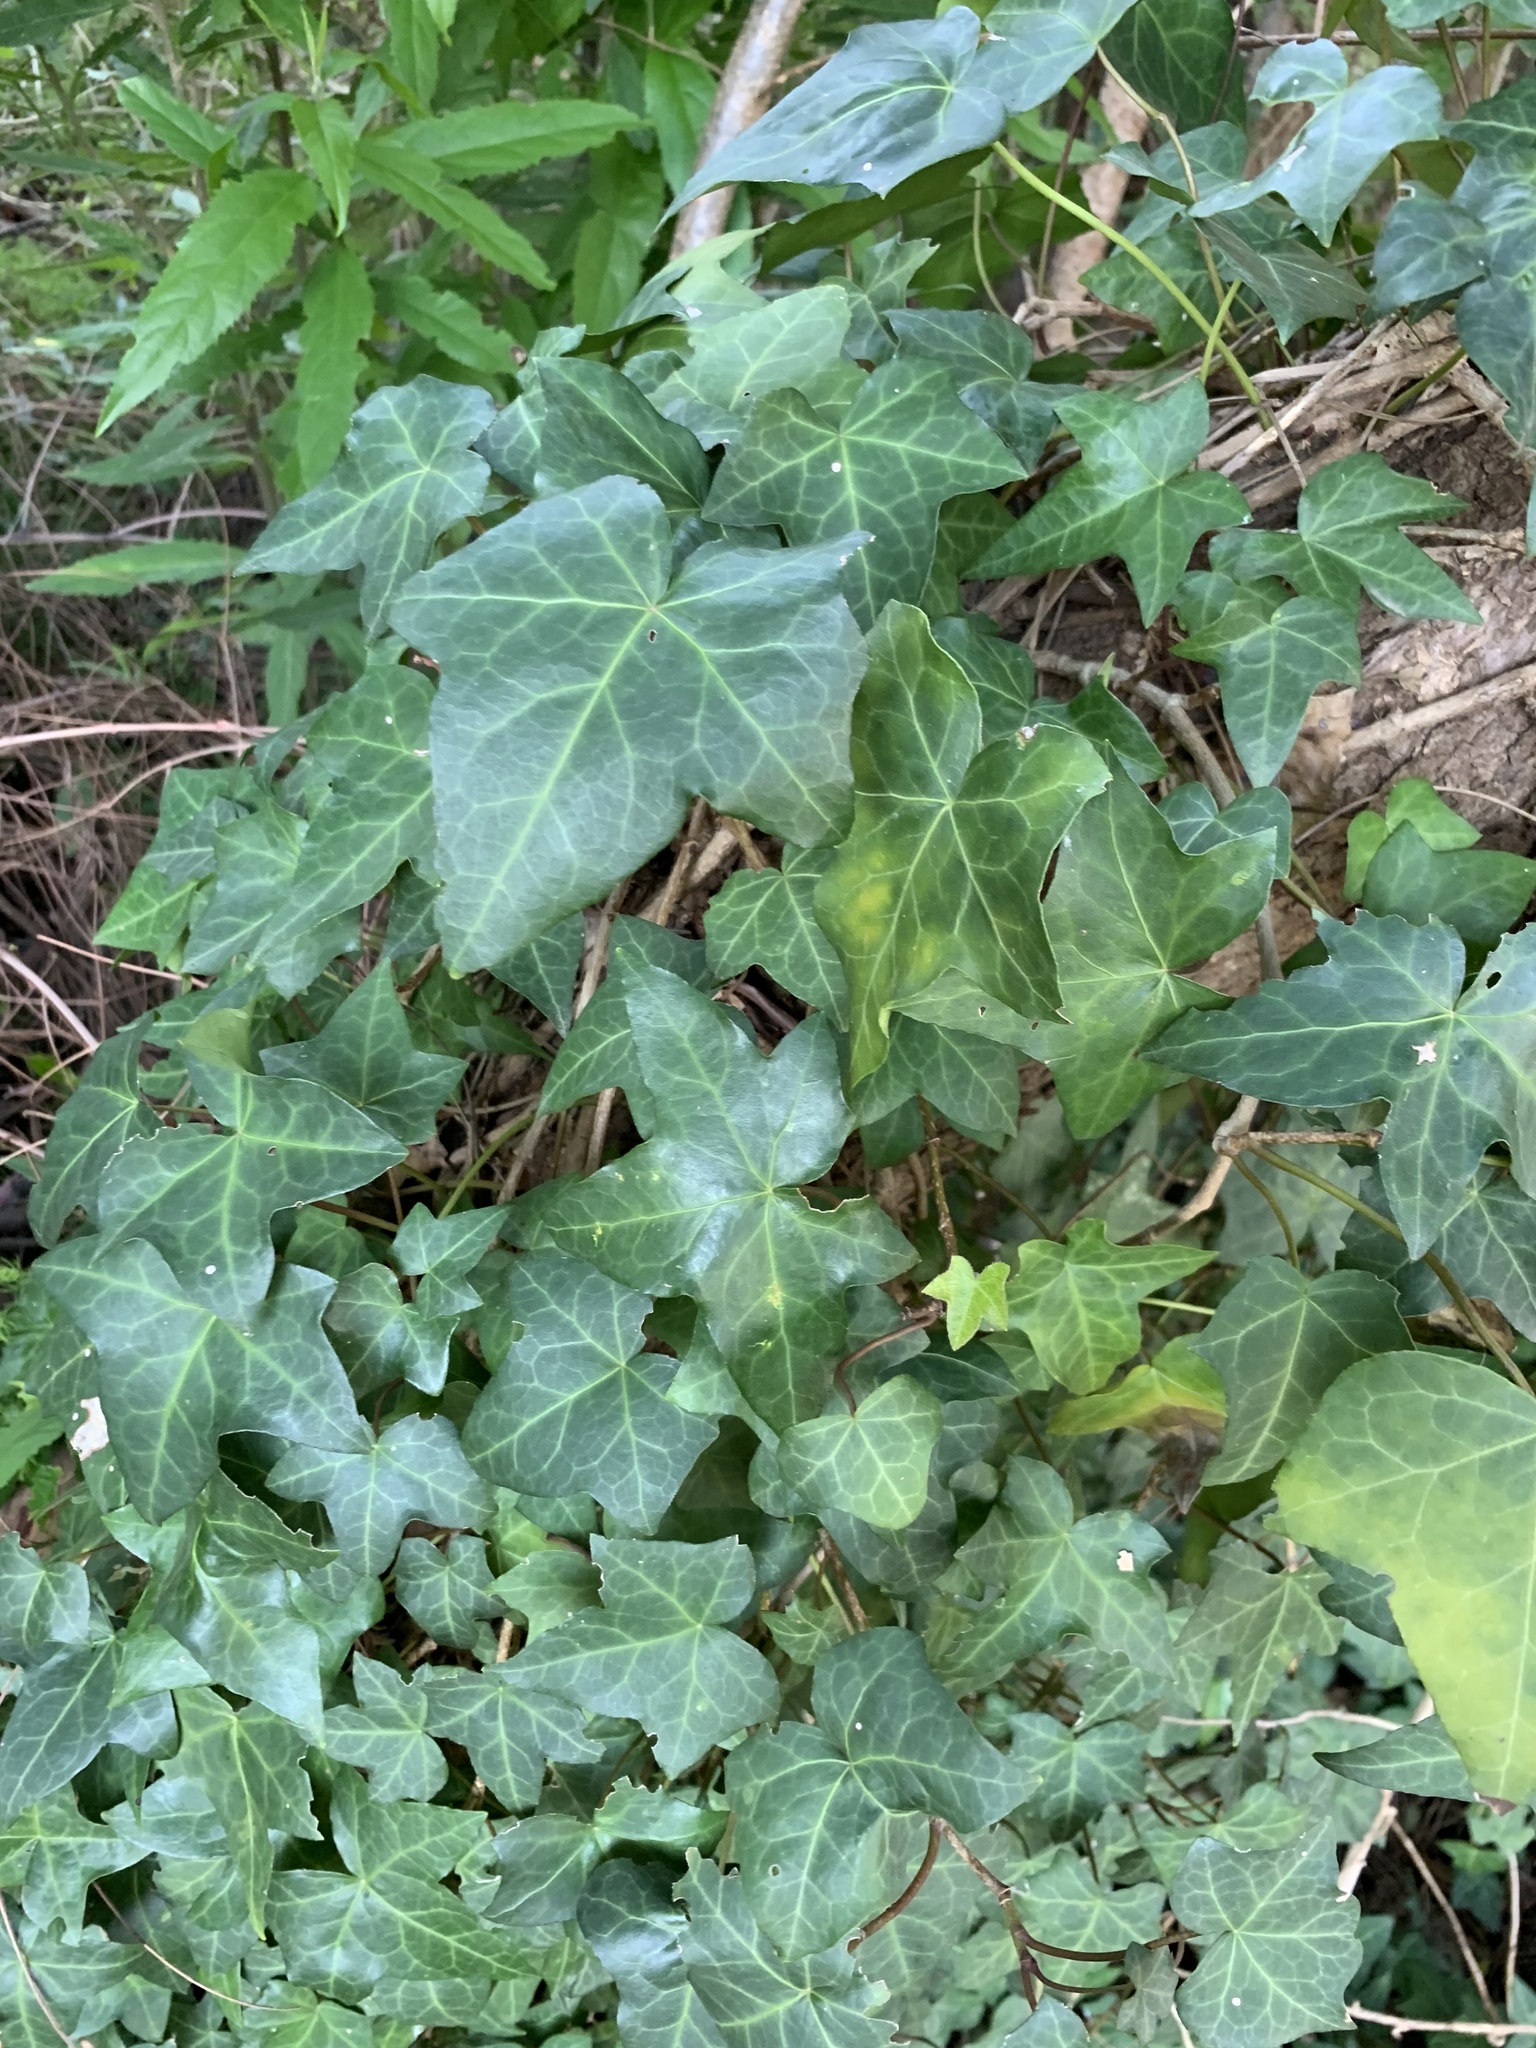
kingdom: Plantae
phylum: Tracheophyta
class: Magnoliopsida
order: Apiales
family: Araliaceae
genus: Hedera
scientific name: Hedera helix
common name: Ivy
